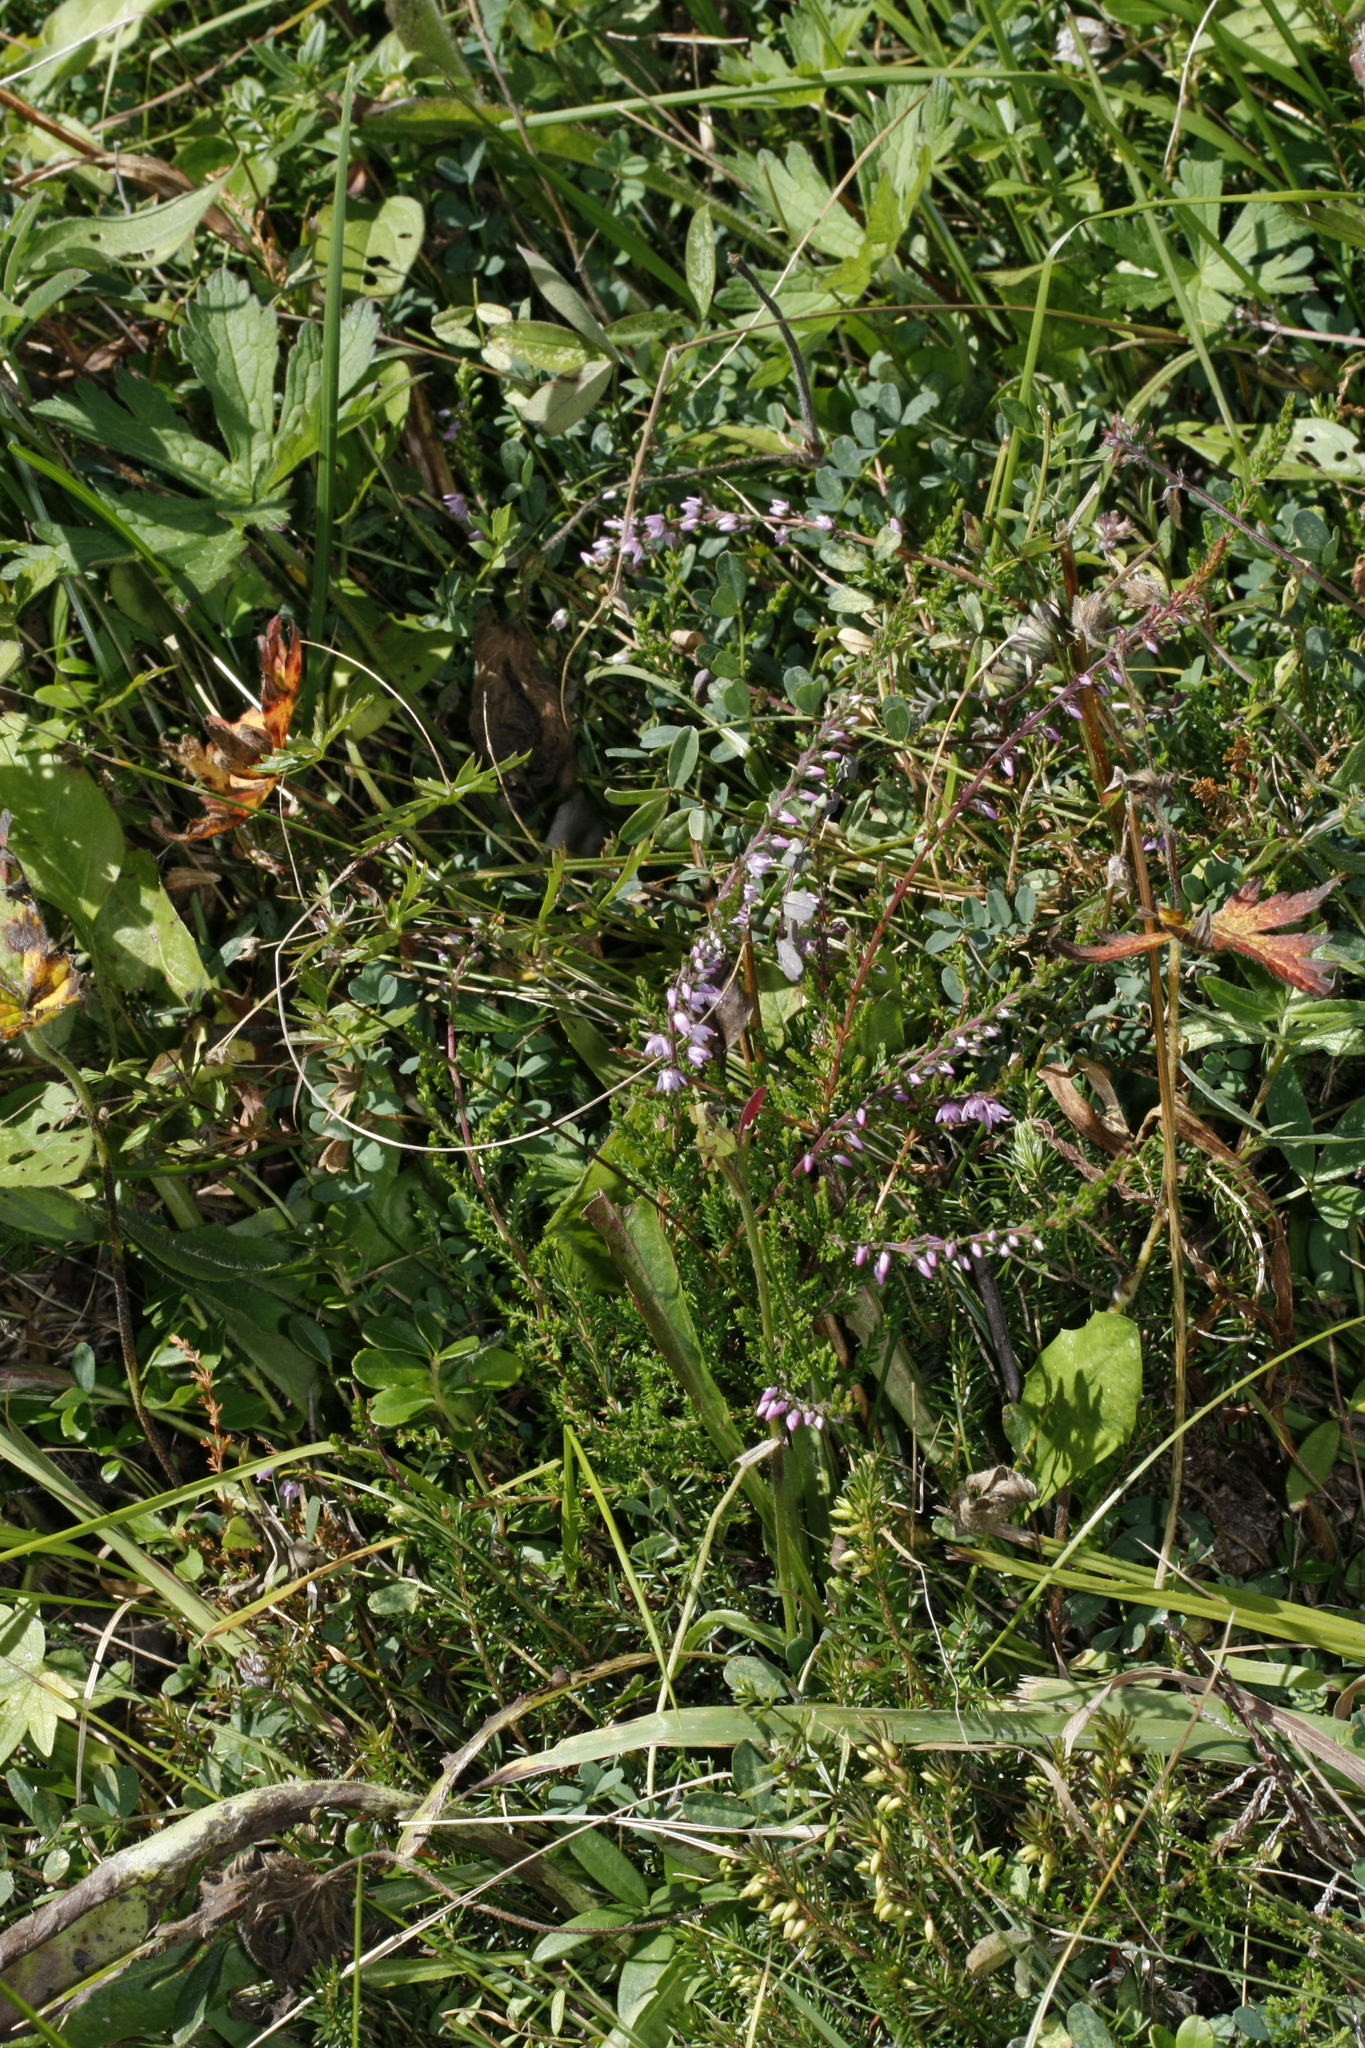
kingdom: Plantae
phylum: Tracheophyta
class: Magnoliopsida
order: Ericales
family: Ericaceae
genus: Calluna
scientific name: Calluna vulgaris
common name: Heather
